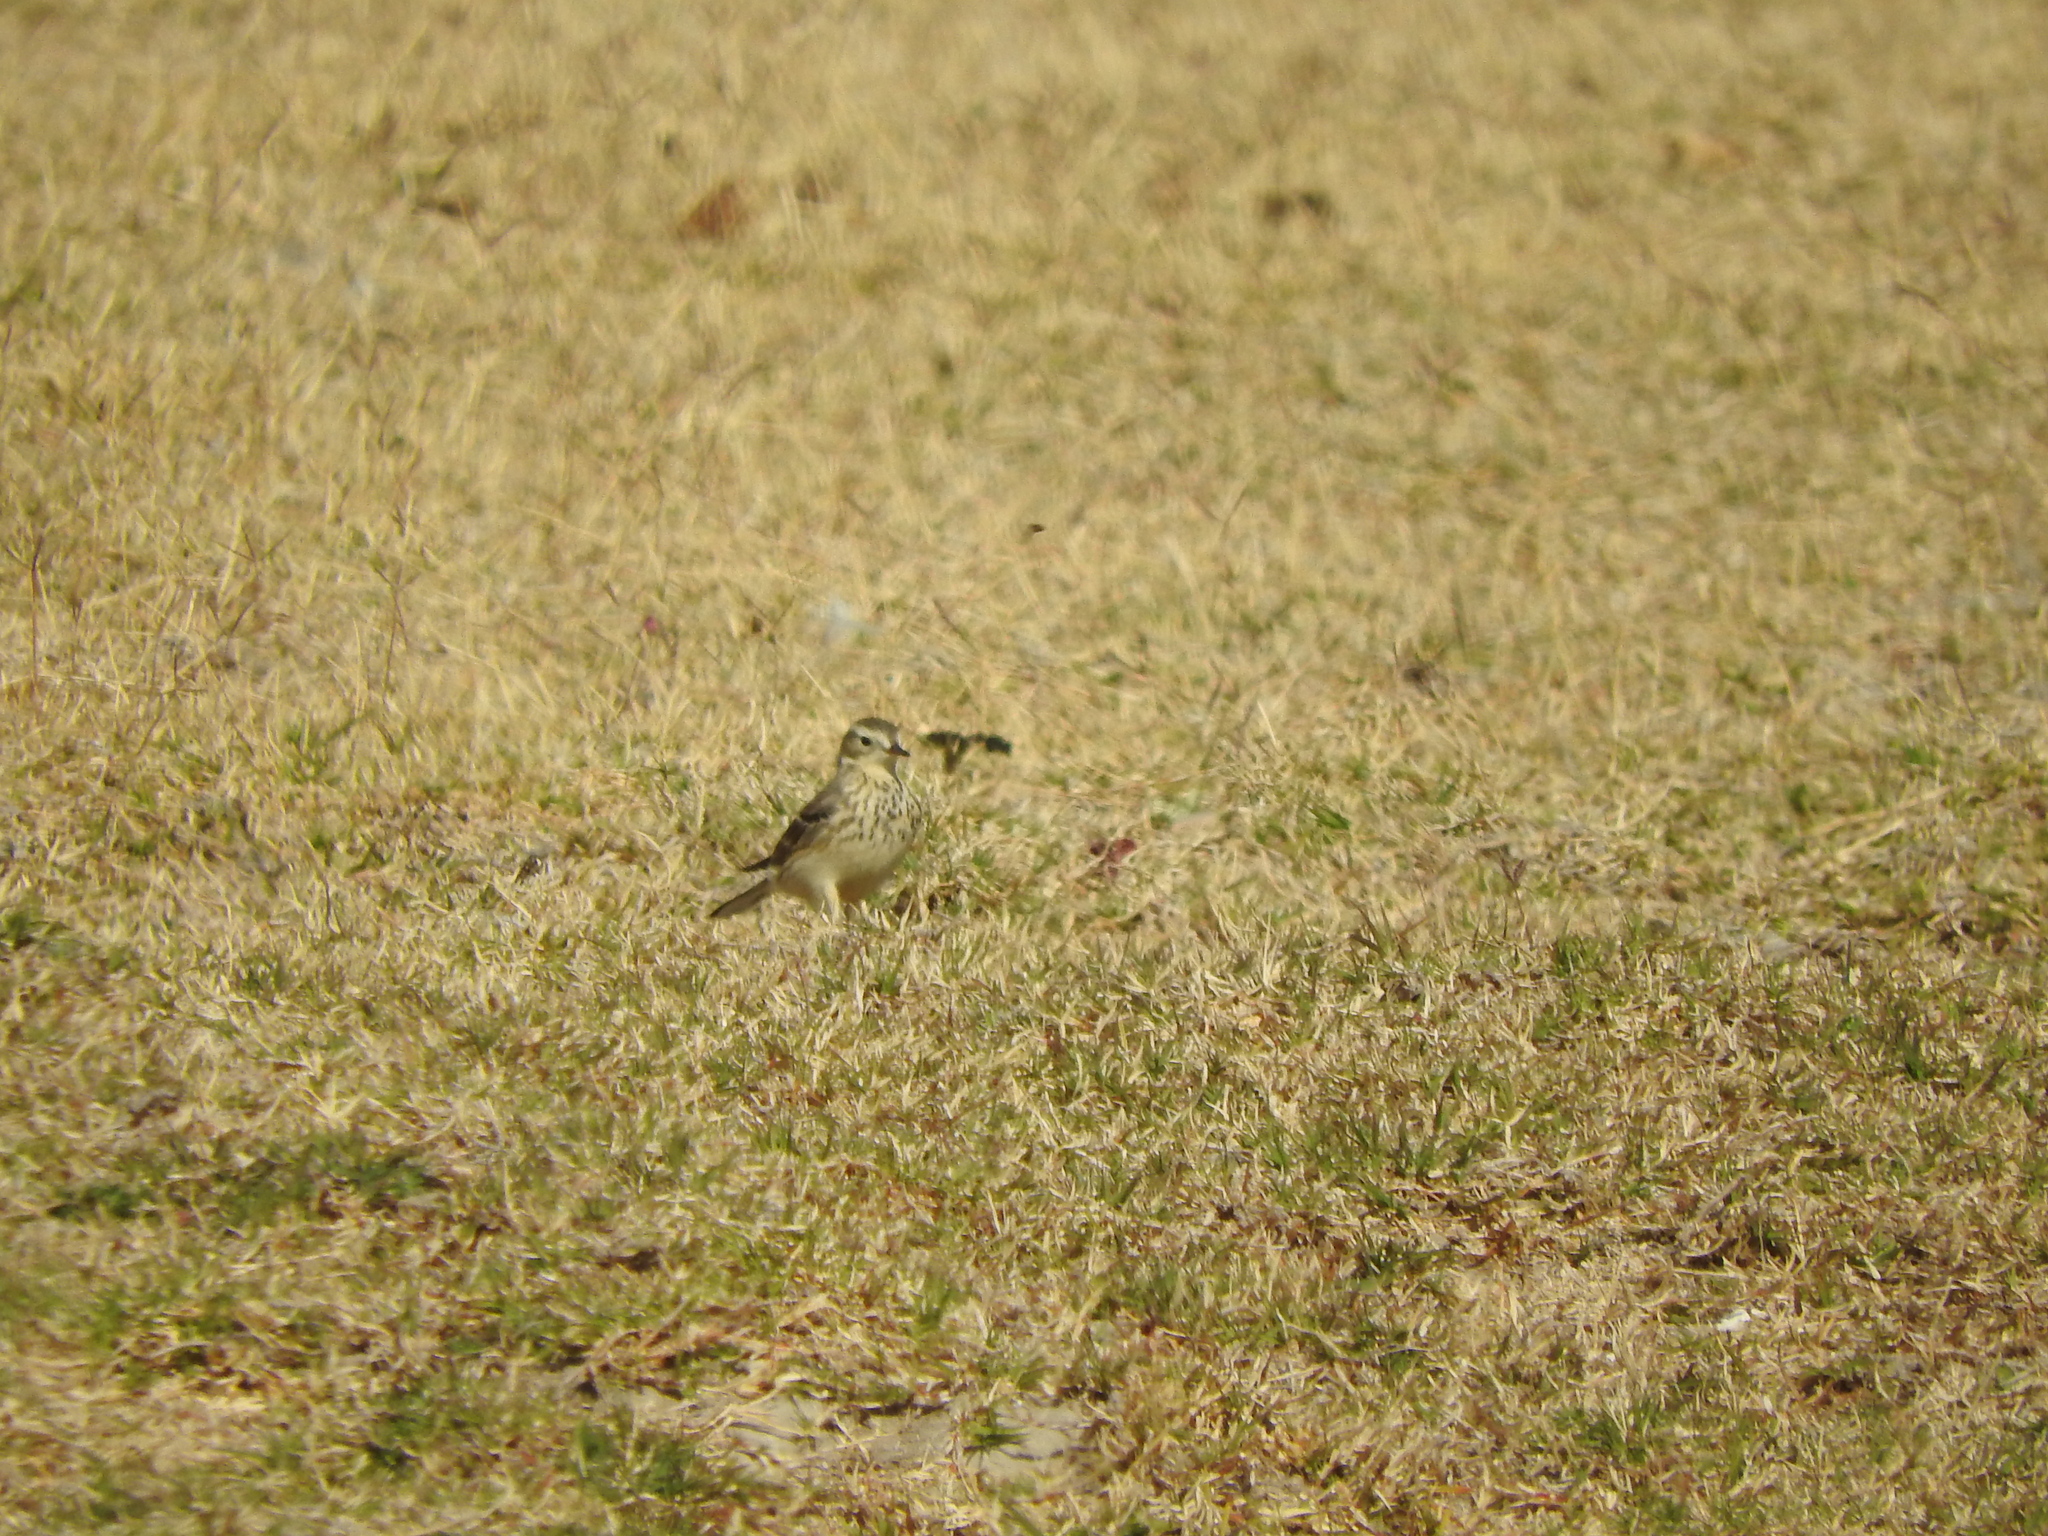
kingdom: Animalia
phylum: Chordata
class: Aves
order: Passeriformes
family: Motacillidae
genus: Anthus
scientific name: Anthus rubescens
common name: Buff-bellied pipit
